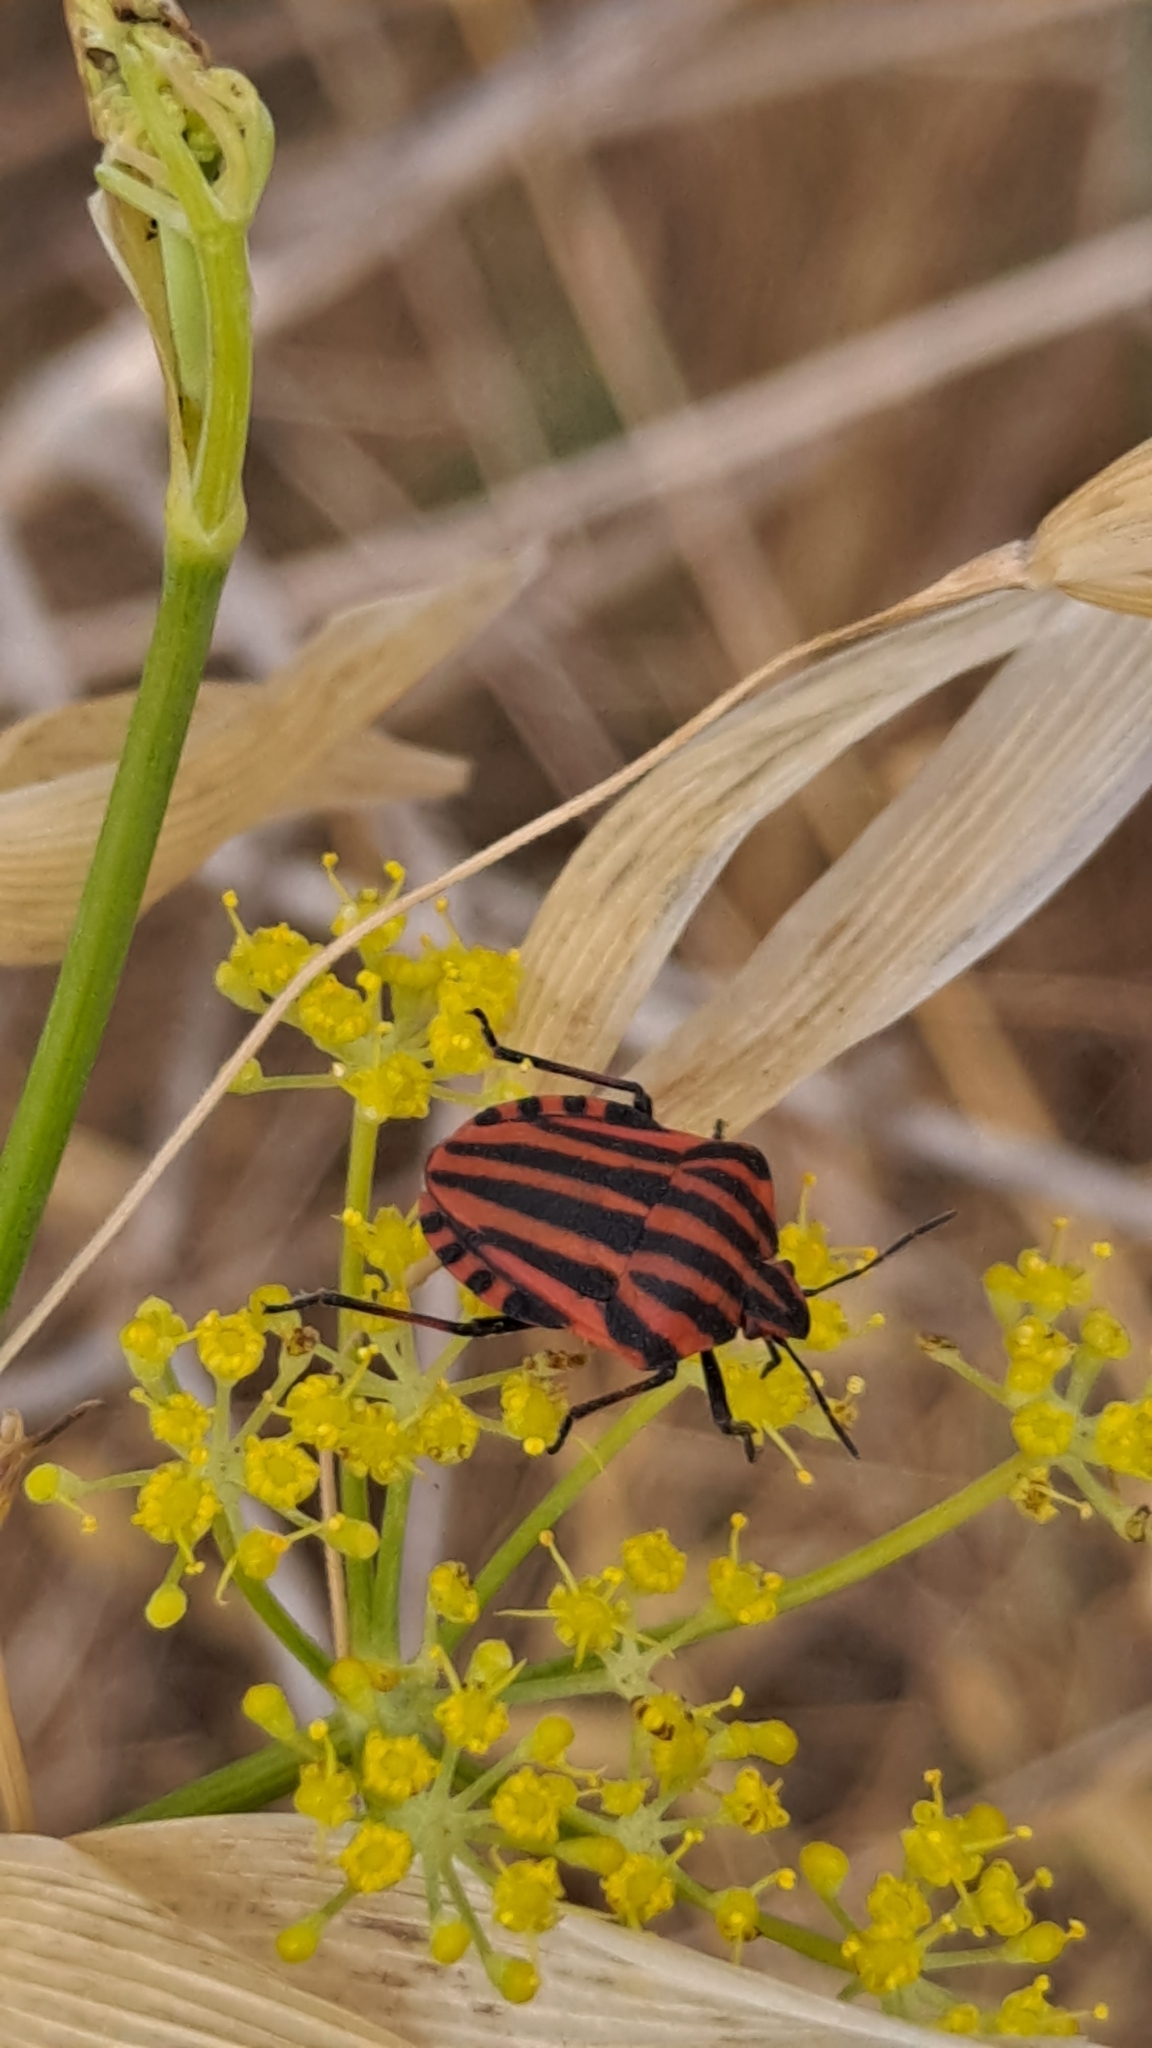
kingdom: Animalia
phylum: Arthropoda
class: Insecta
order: Hemiptera
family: Pentatomidae
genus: Graphosoma
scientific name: Graphosoma italicum
